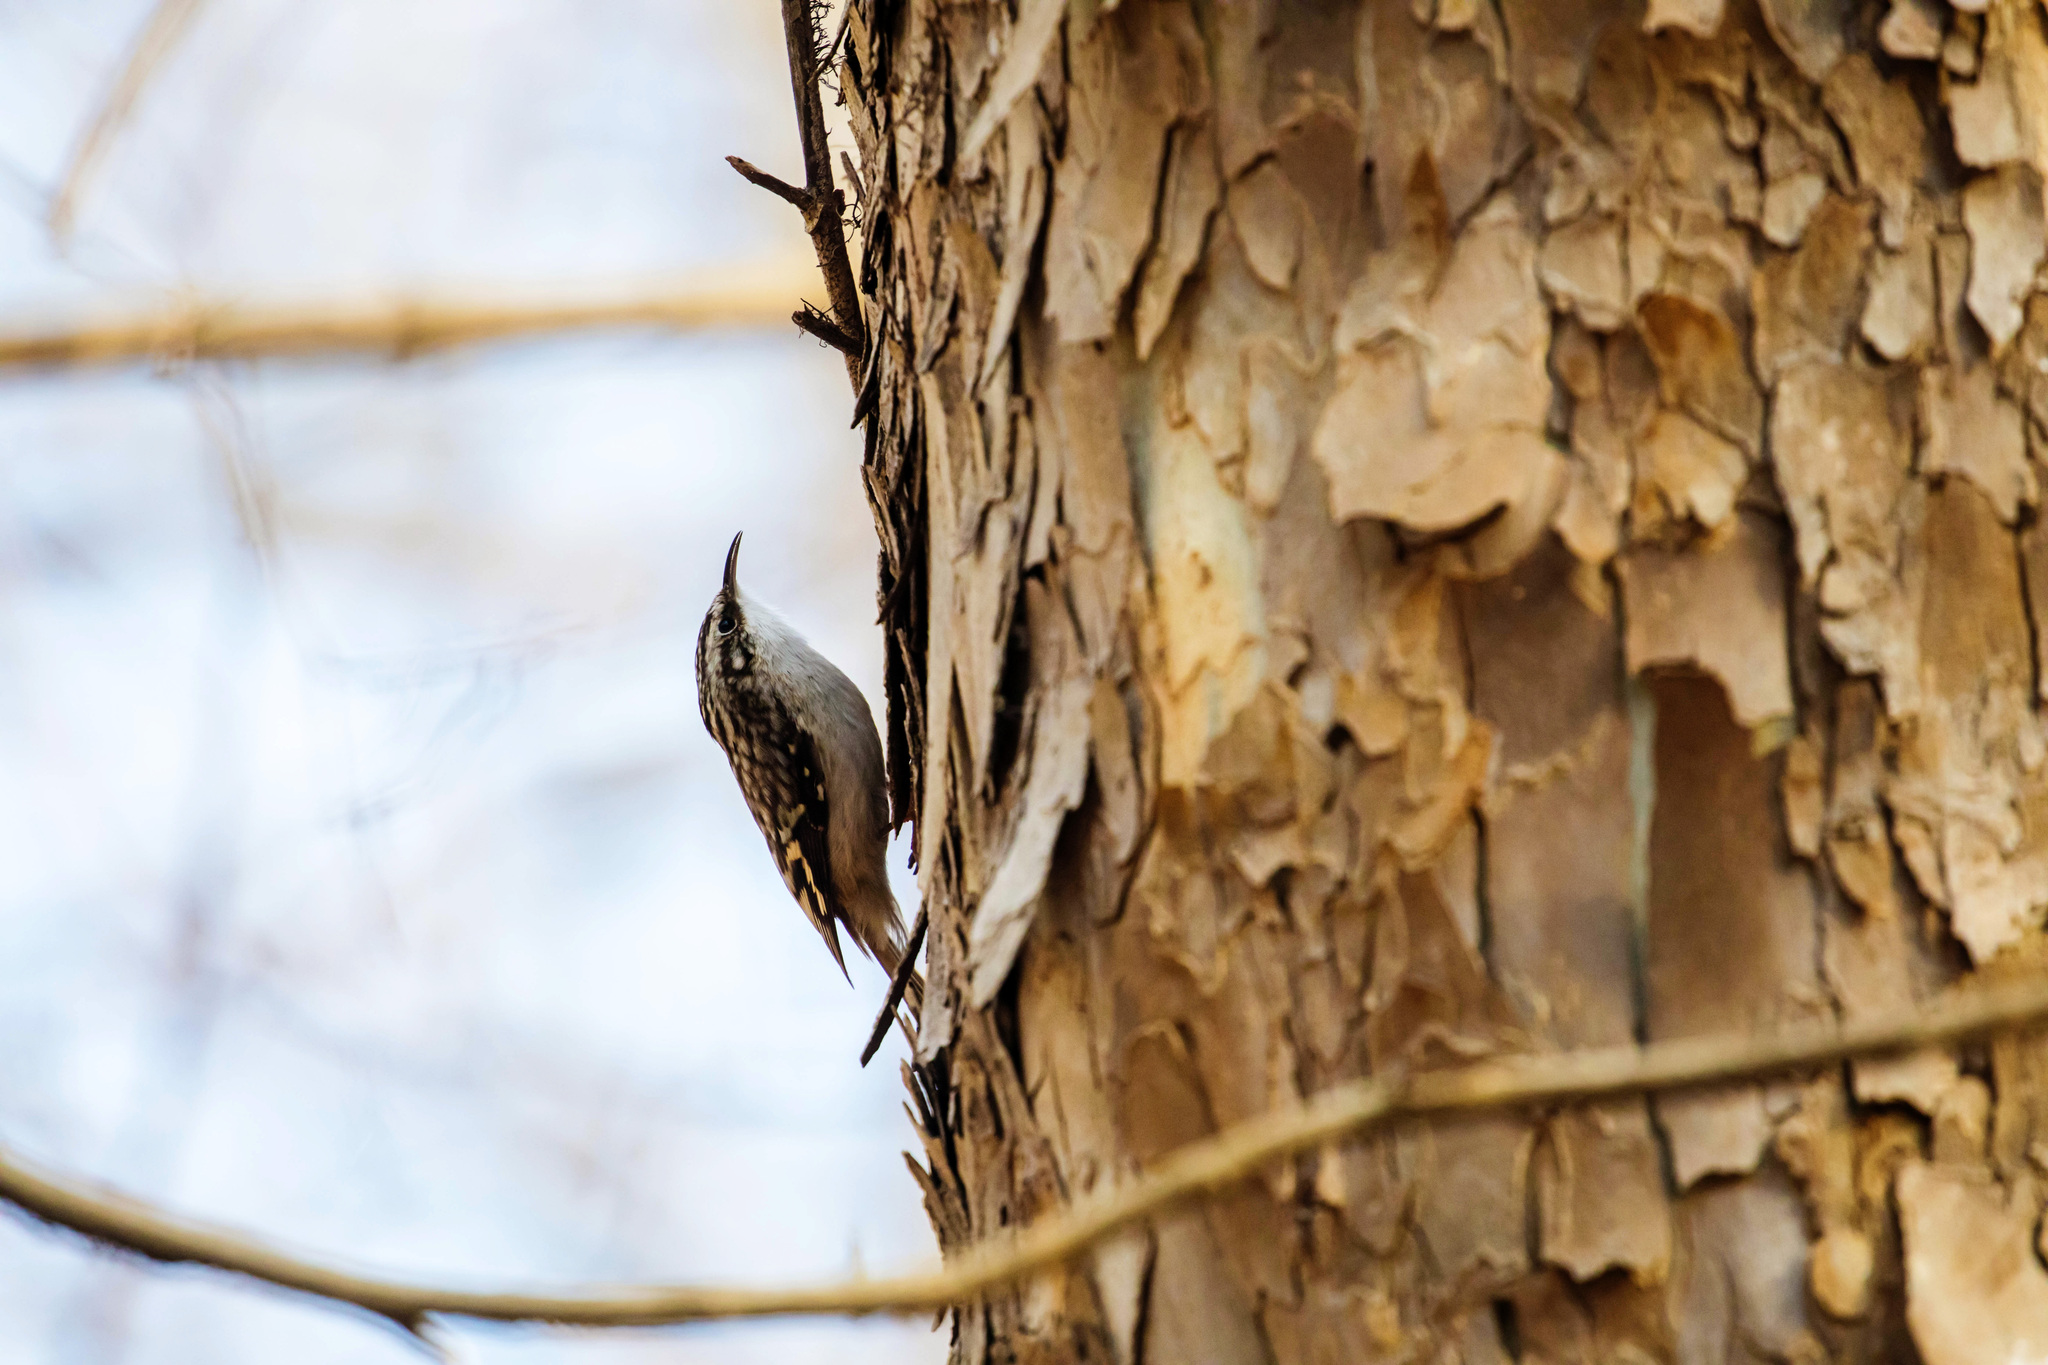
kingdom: Animalia
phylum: Chordata
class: Aves
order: Passeriformes
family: Certhiidae
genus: Certhia
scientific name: Certhia americana
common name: Brown creeper
